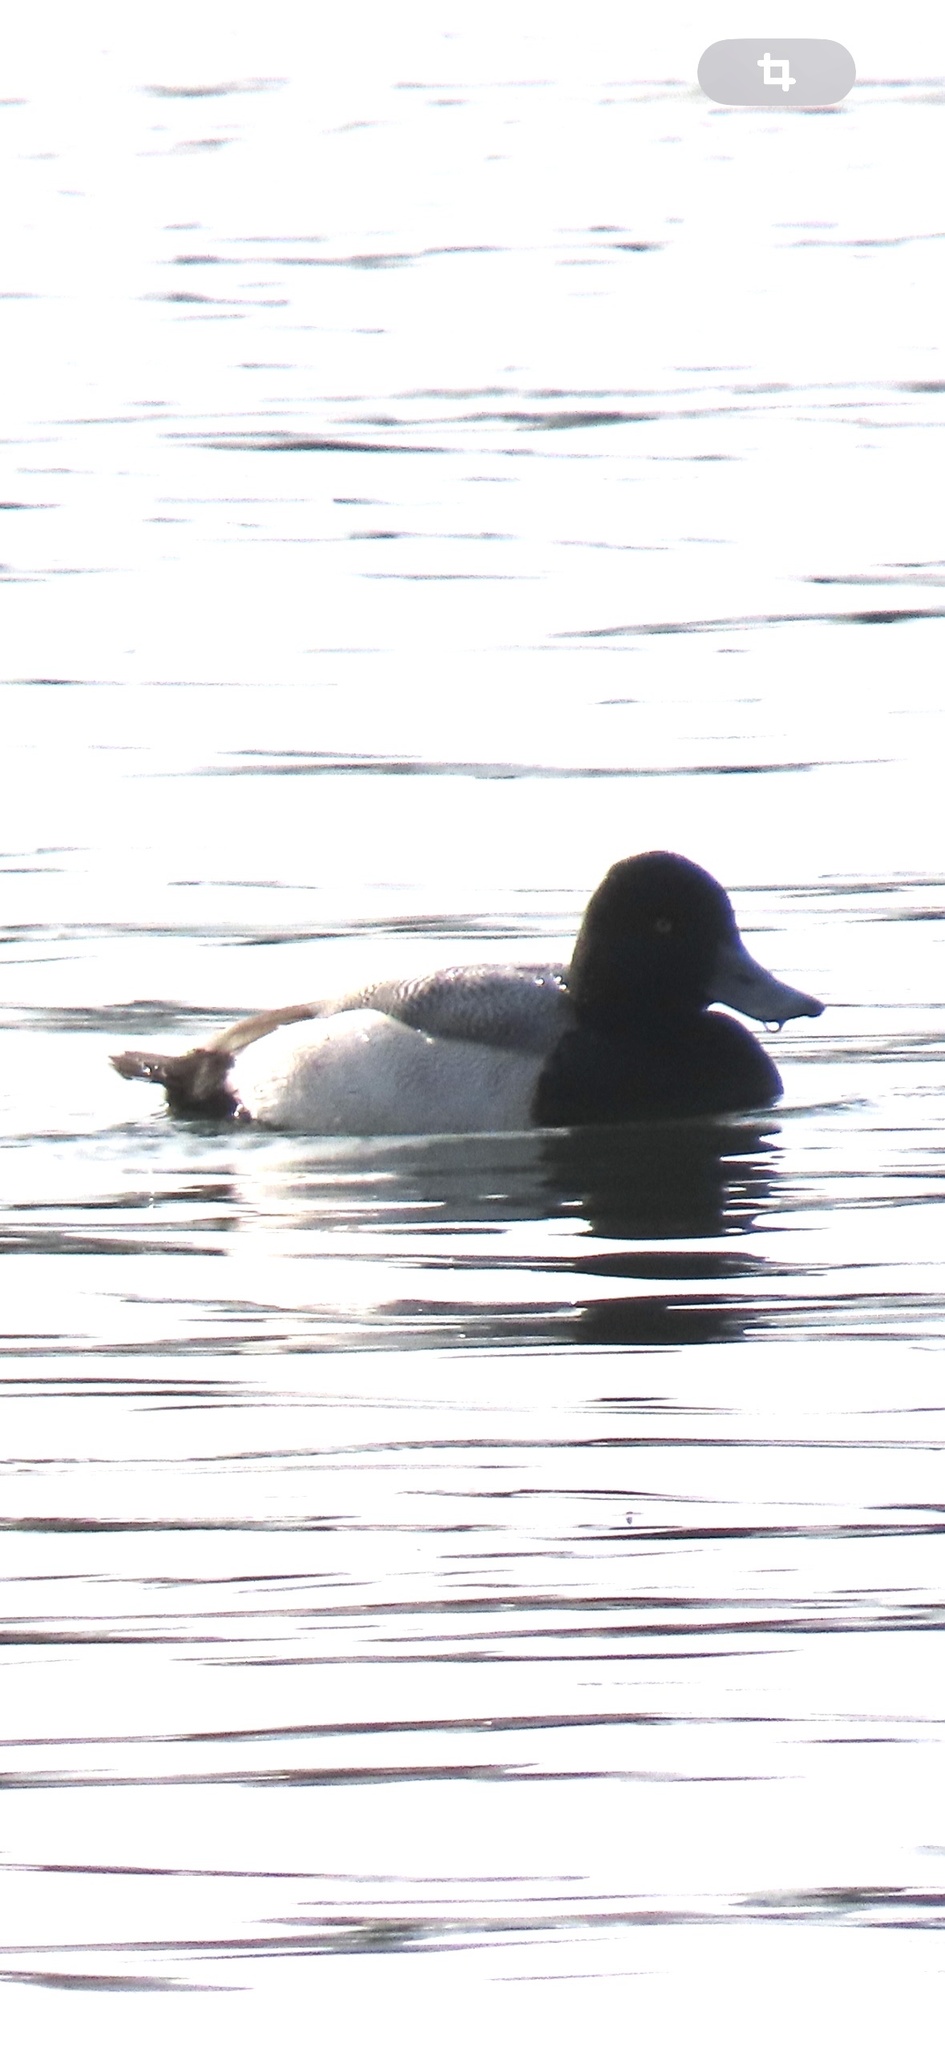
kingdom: Animalia
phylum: Chordata
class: Aves
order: Anseriformes
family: Anatidae
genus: Aythya
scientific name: Aythya affinis
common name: Lesser scaup
